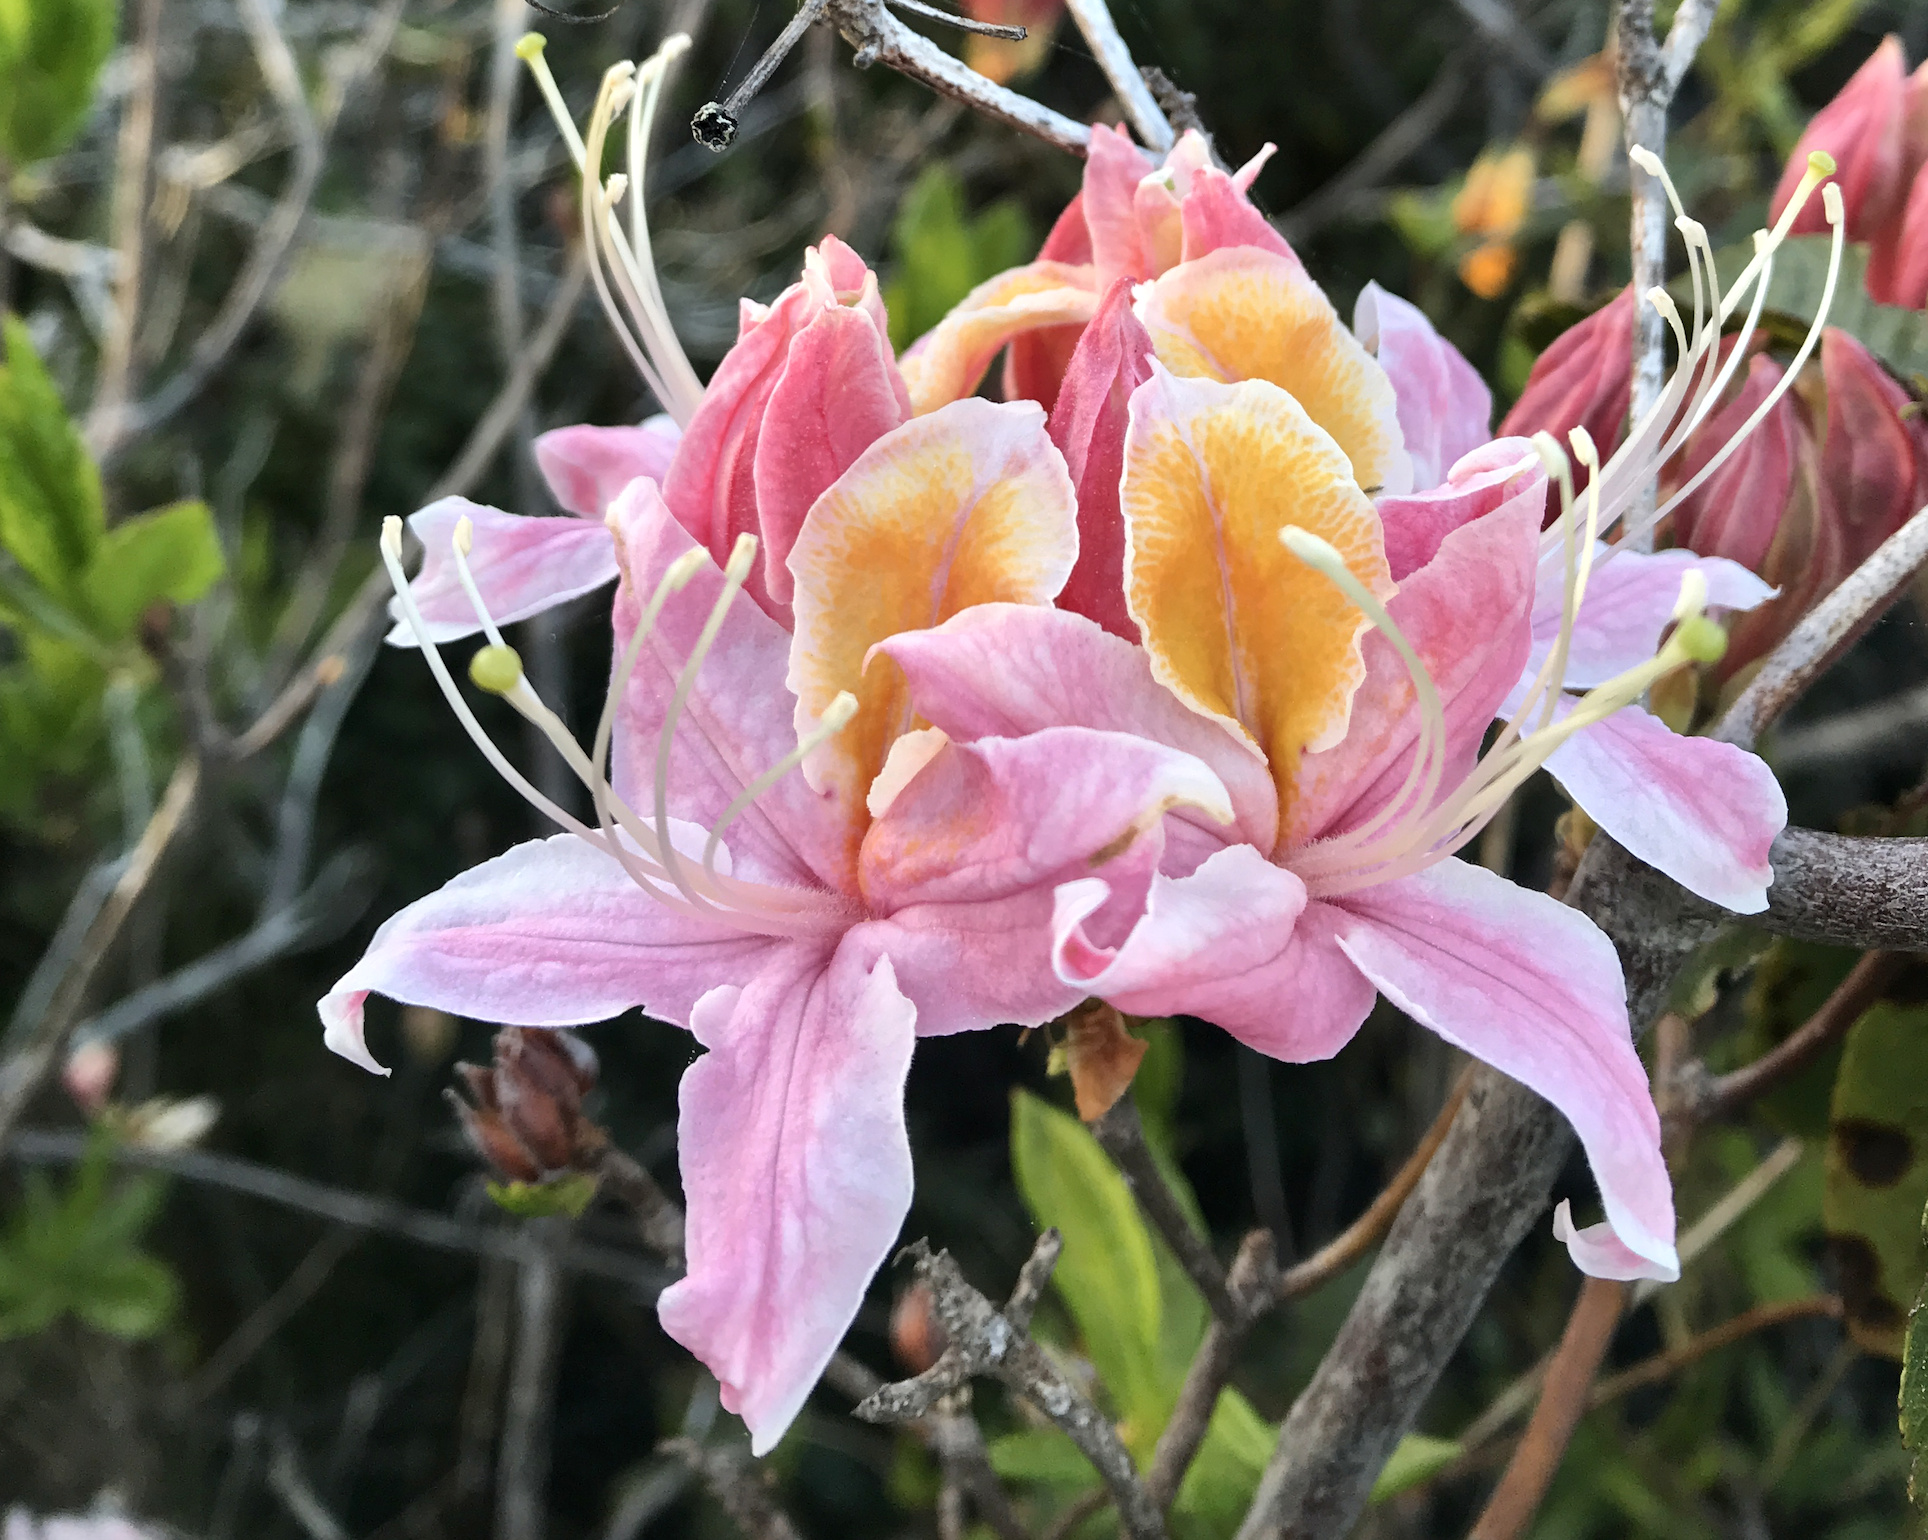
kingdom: Plantae
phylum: Tracheophyta
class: Magnoliopsida
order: Ericales
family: Ericaceae
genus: Rhododendron
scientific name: Rhododendron occidentale
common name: Western azalea
